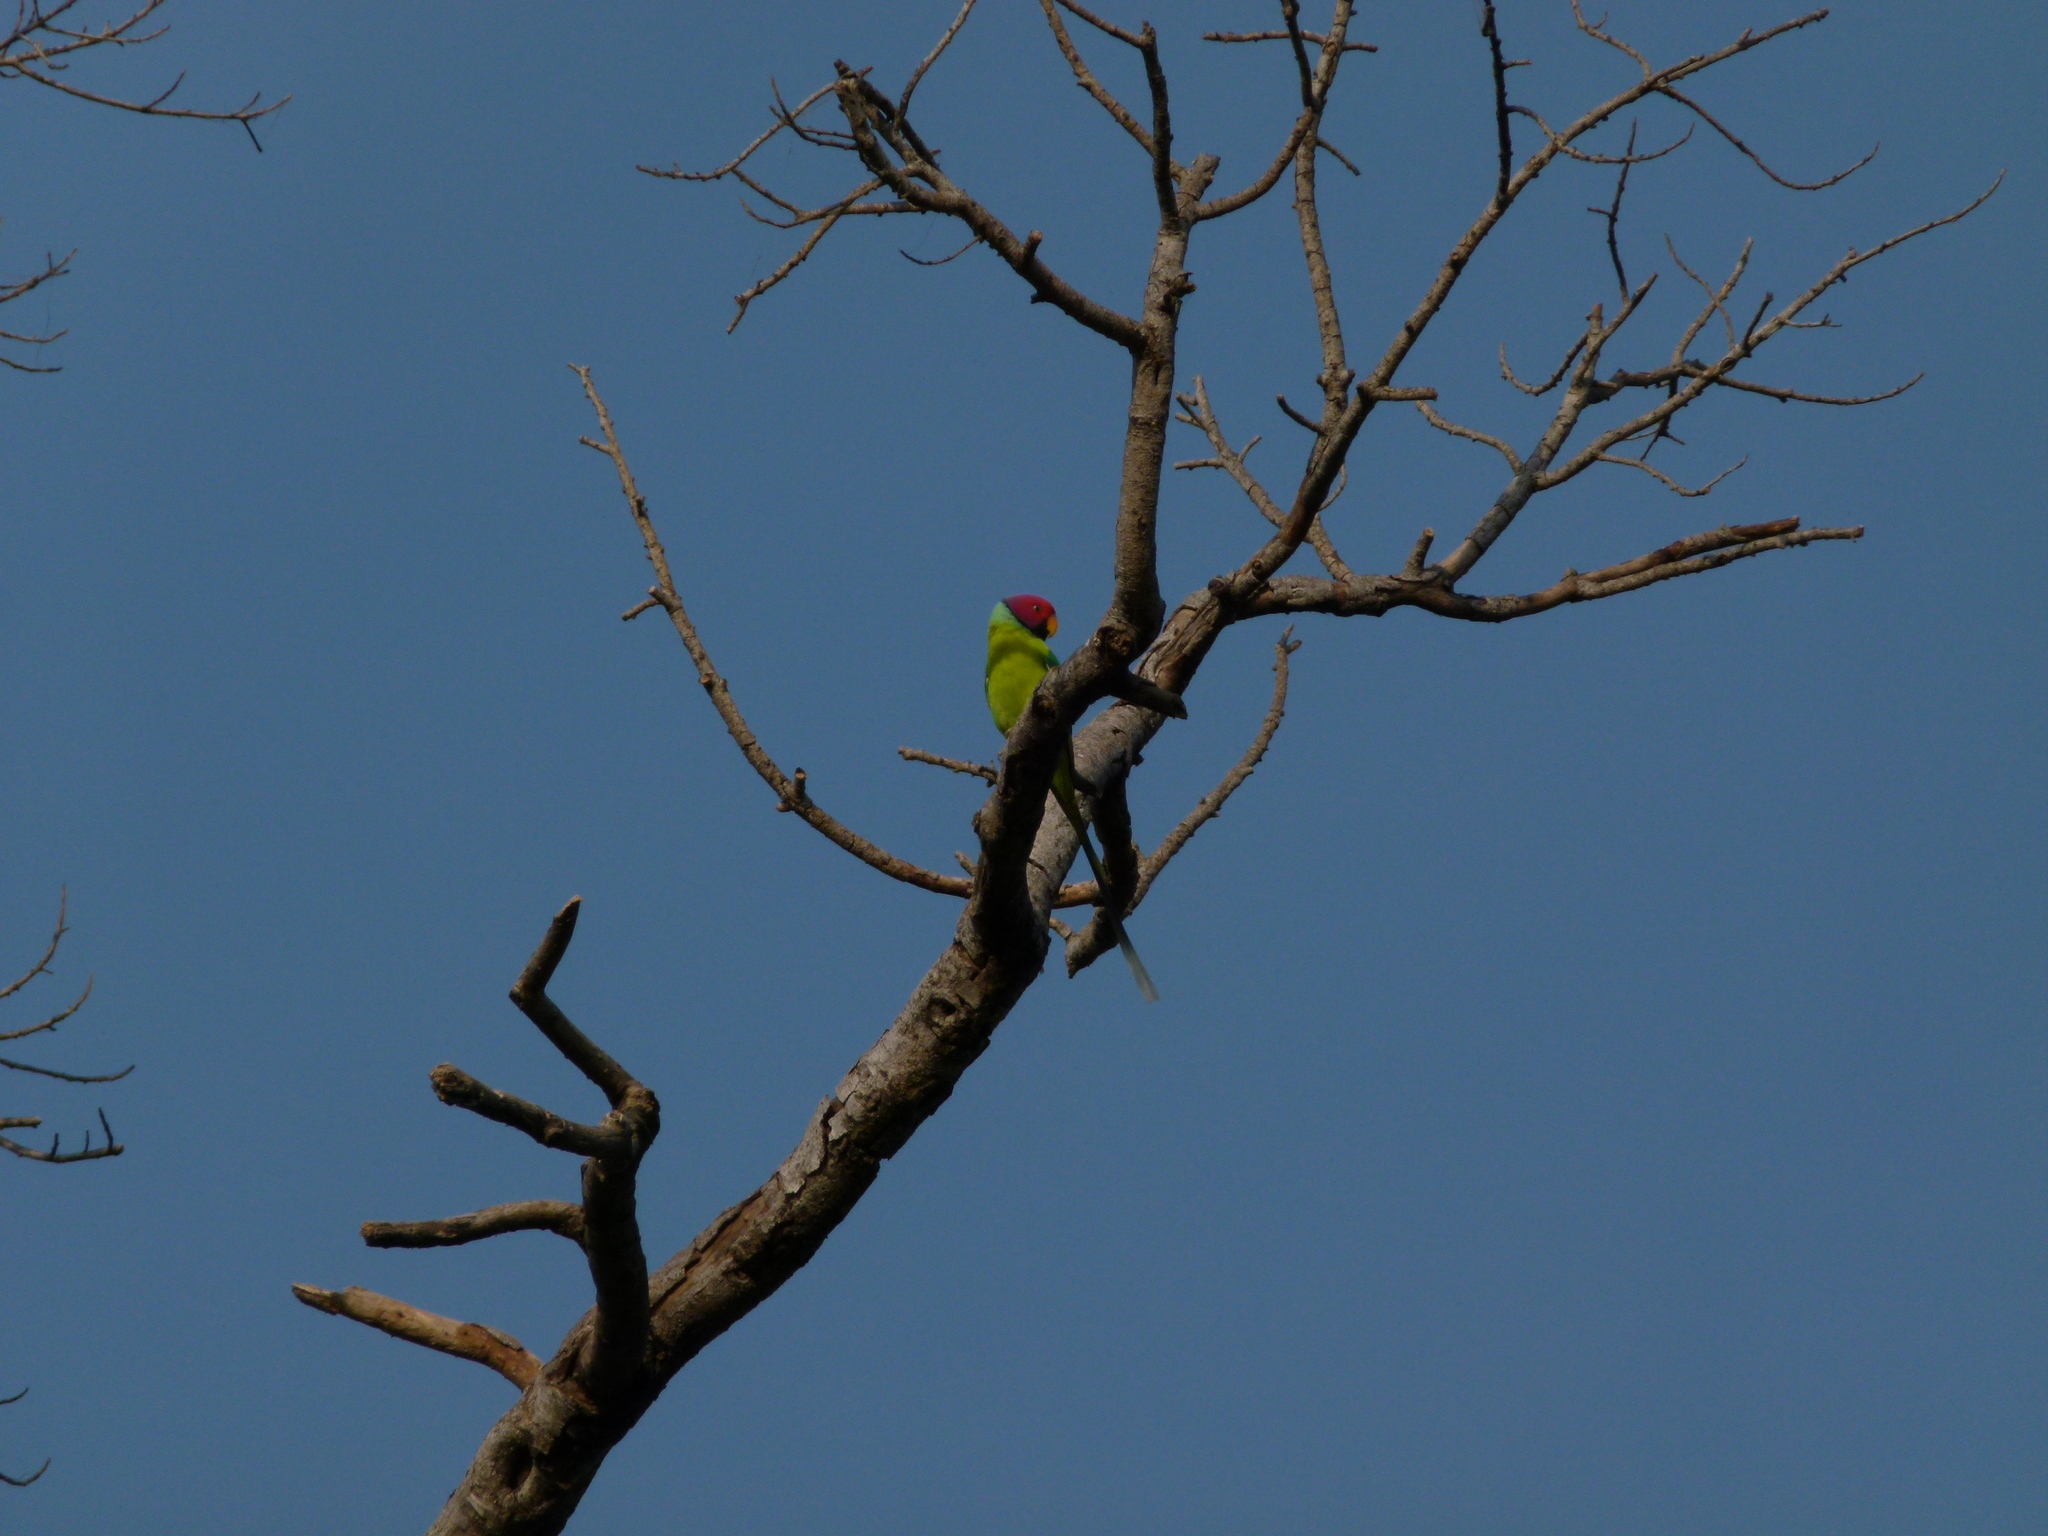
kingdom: Animalia
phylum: Chordata
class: Aves
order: Psittaciformes
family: Psittacidae
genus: Psittacula
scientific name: Psittacula cyanocephala
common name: Plum-headed parakeet
